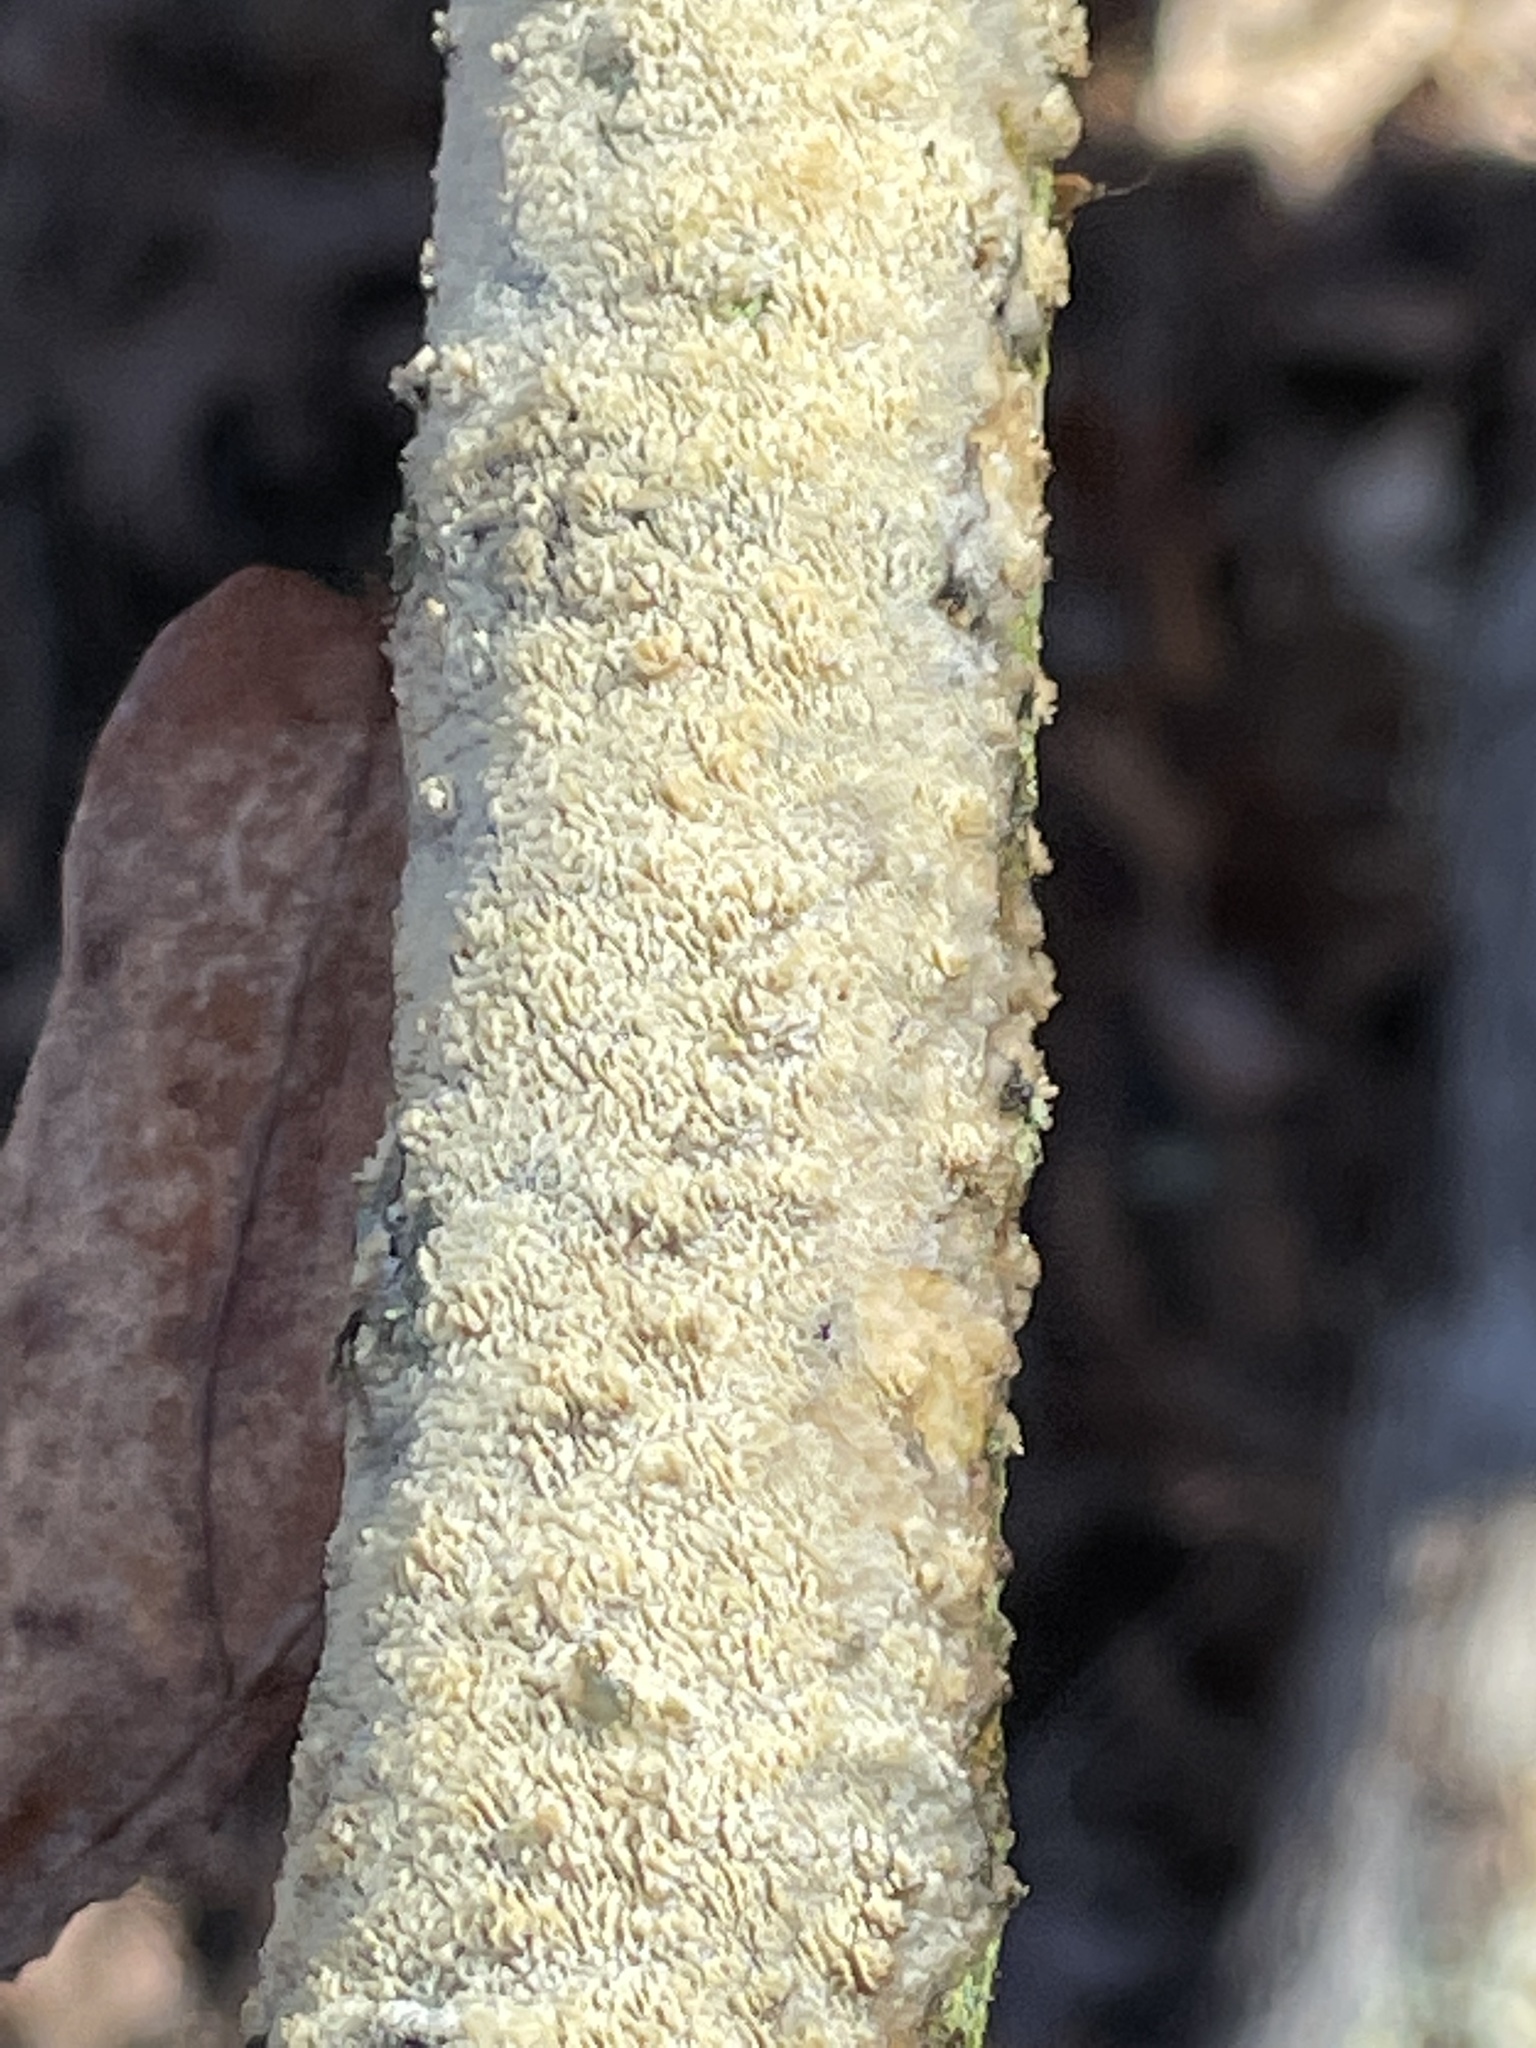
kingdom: Fungi
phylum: Basidiomycota
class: Agaricomycetes
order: Polyporales
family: Irpicaceae
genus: Byssomerulius
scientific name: Byssomerulius corium
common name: Netted crust
